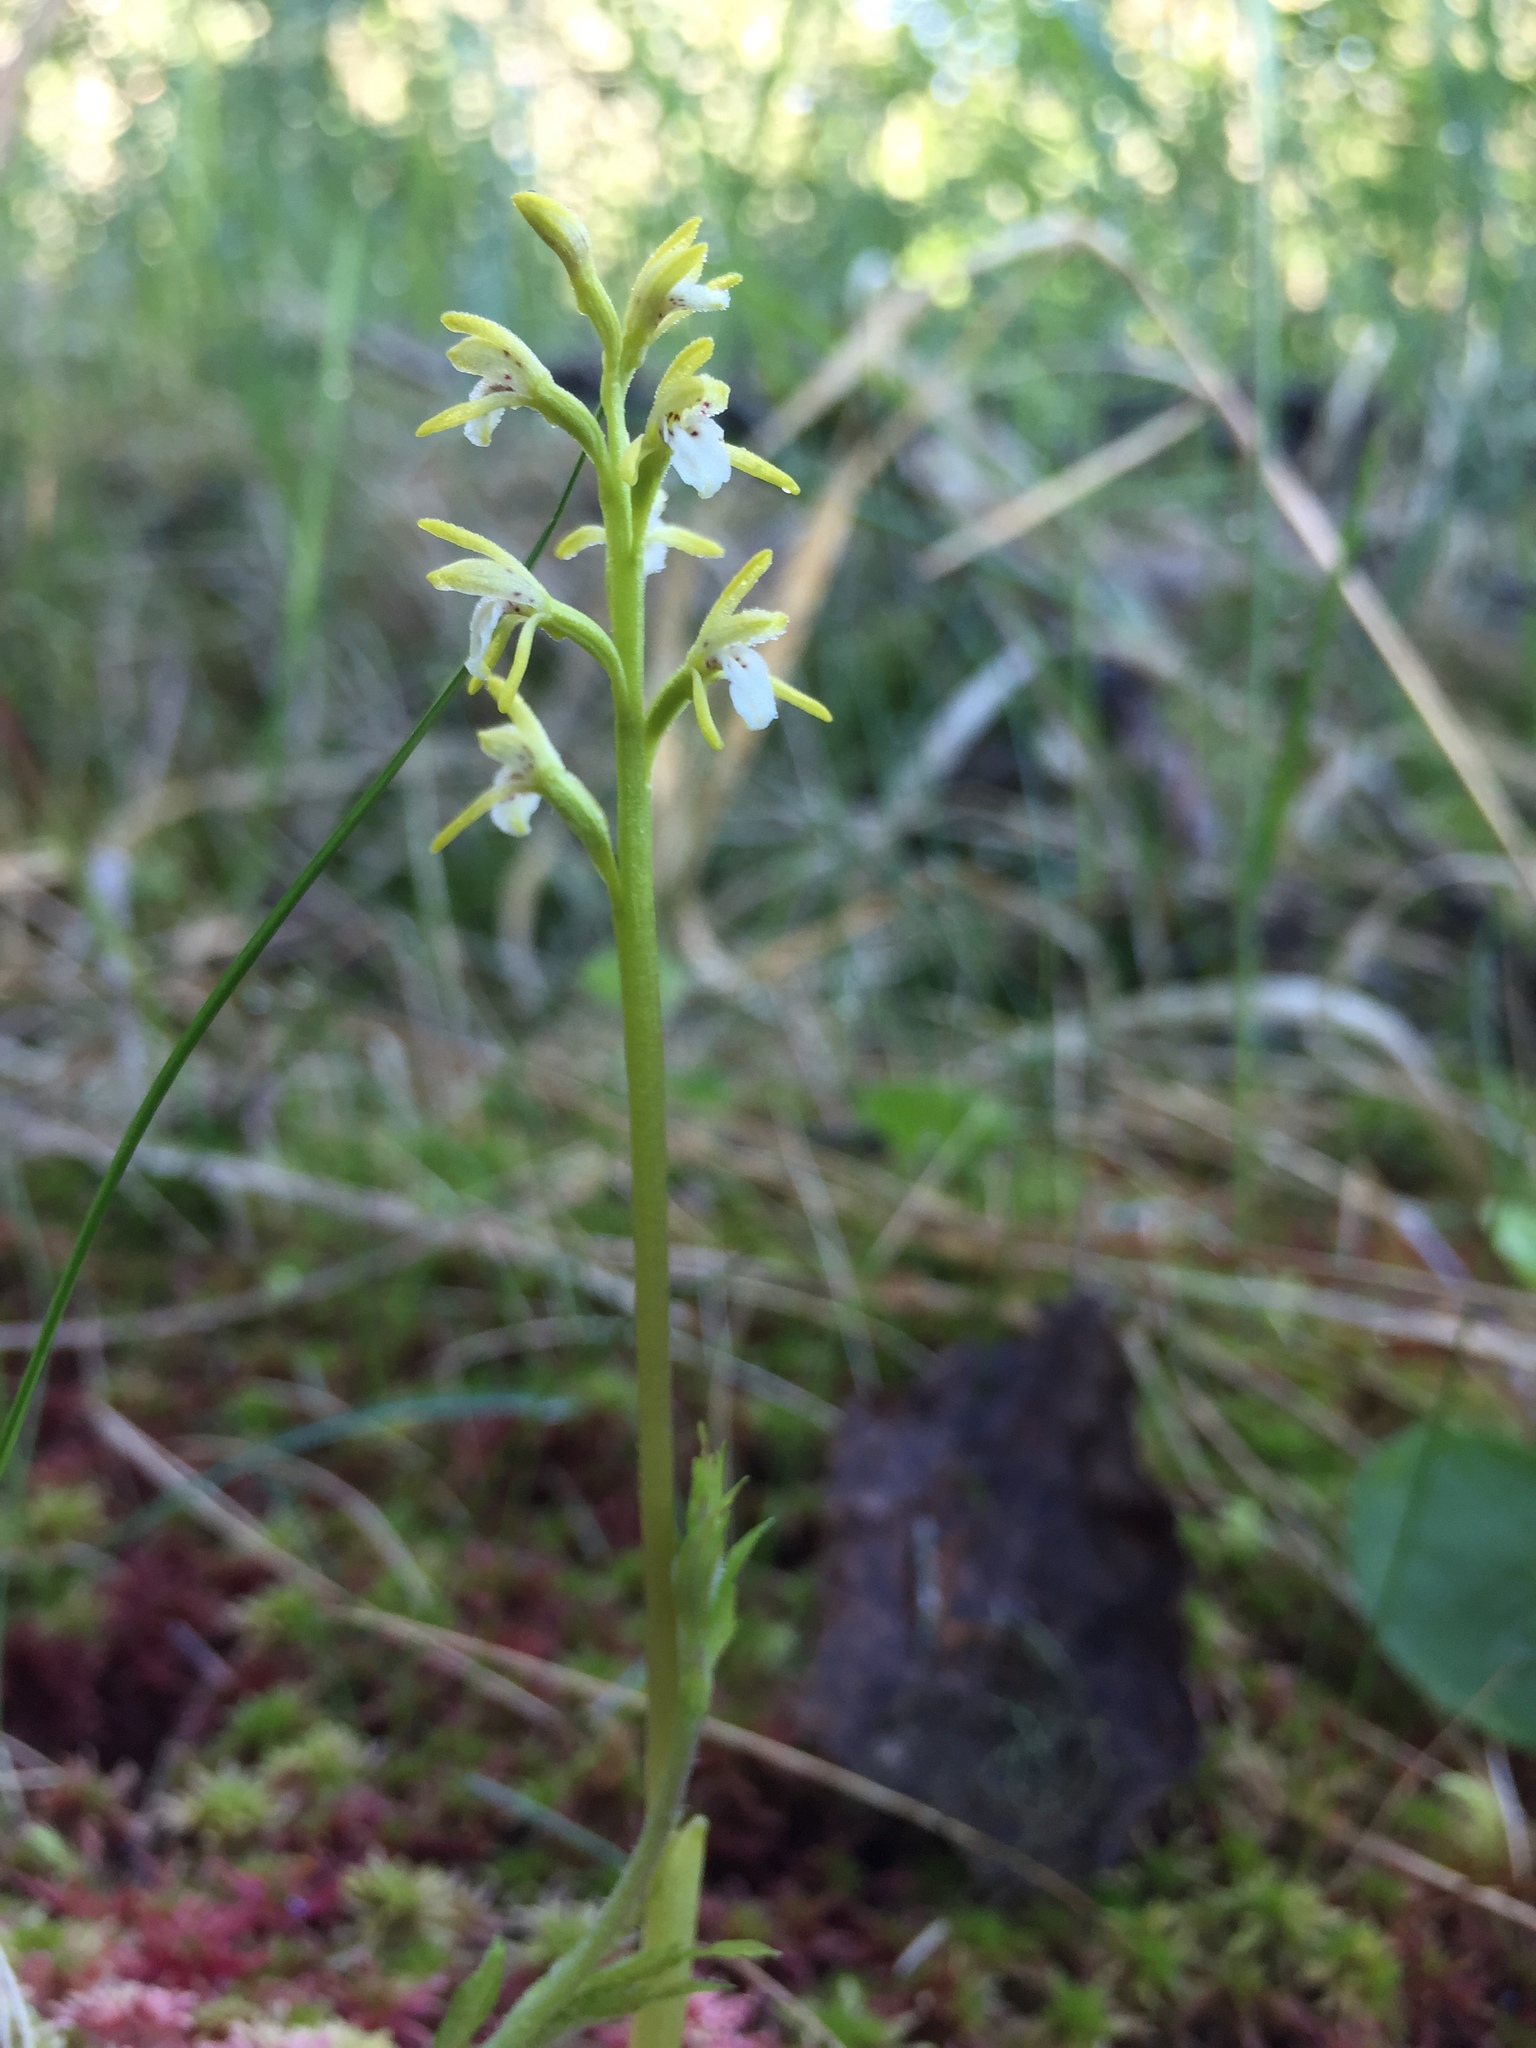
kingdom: Plantae
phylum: Tracheophyta
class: Liliopsida
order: Asparagales
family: Orchidaceae
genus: Corallorhiza
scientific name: Corallorhiza trifida
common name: Yellow coralroot
